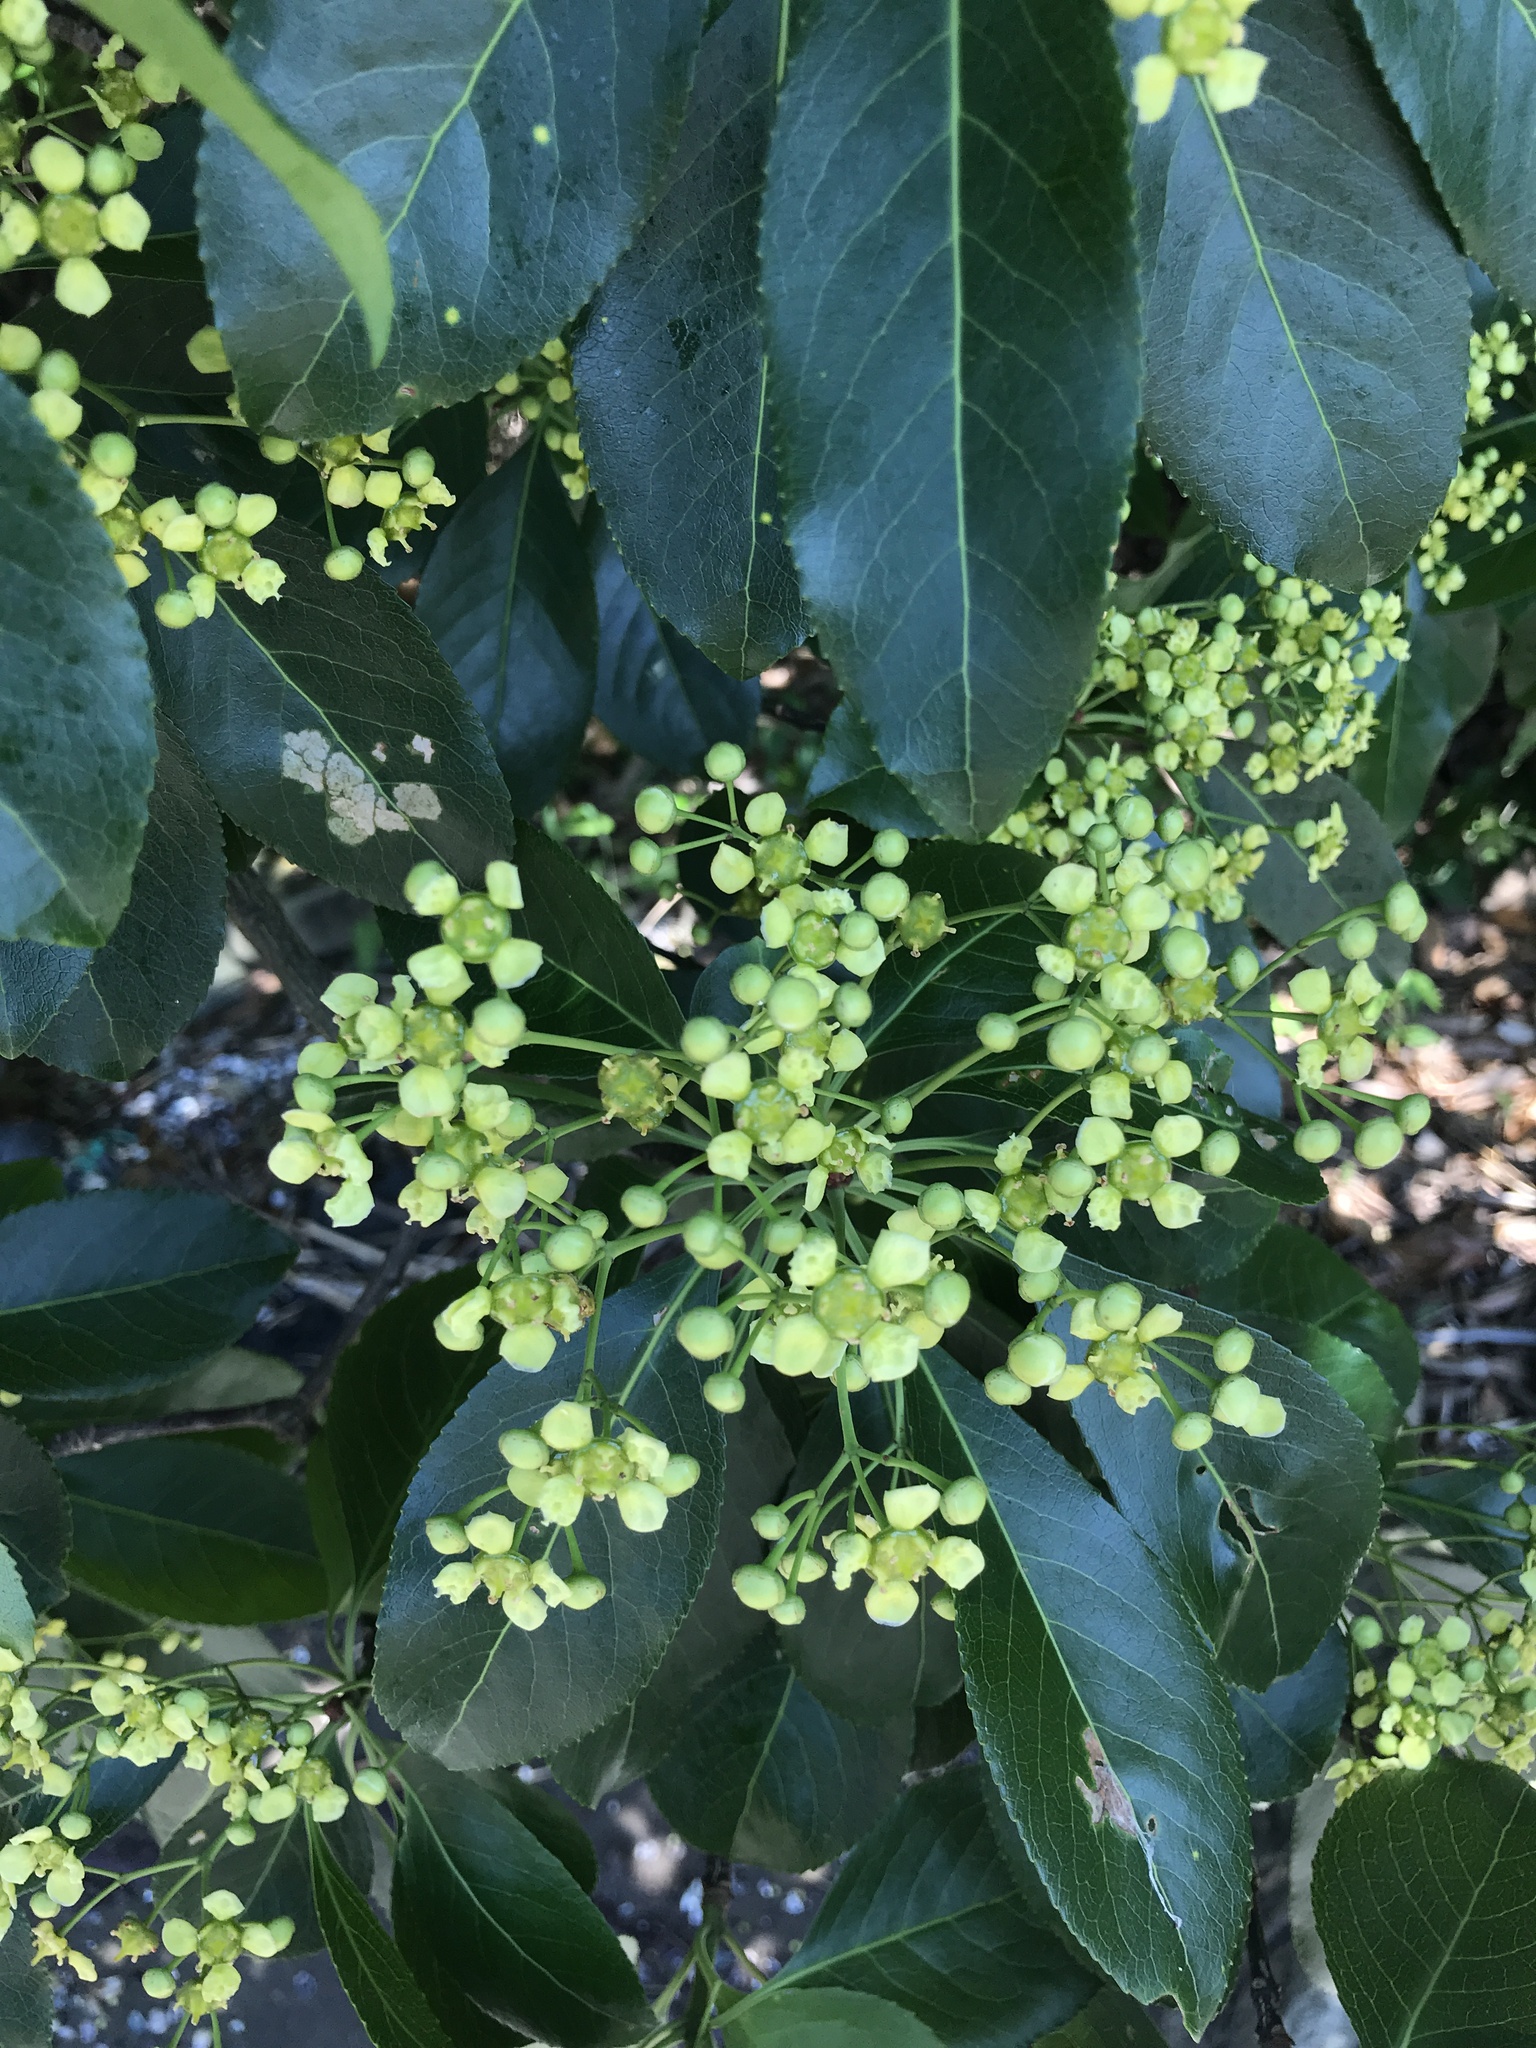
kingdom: Plantae
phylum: Tracheophyta
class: Magnoliopsida
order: Celastrales
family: Celastraceae
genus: Euonymus
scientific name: Euonymus carnosus
